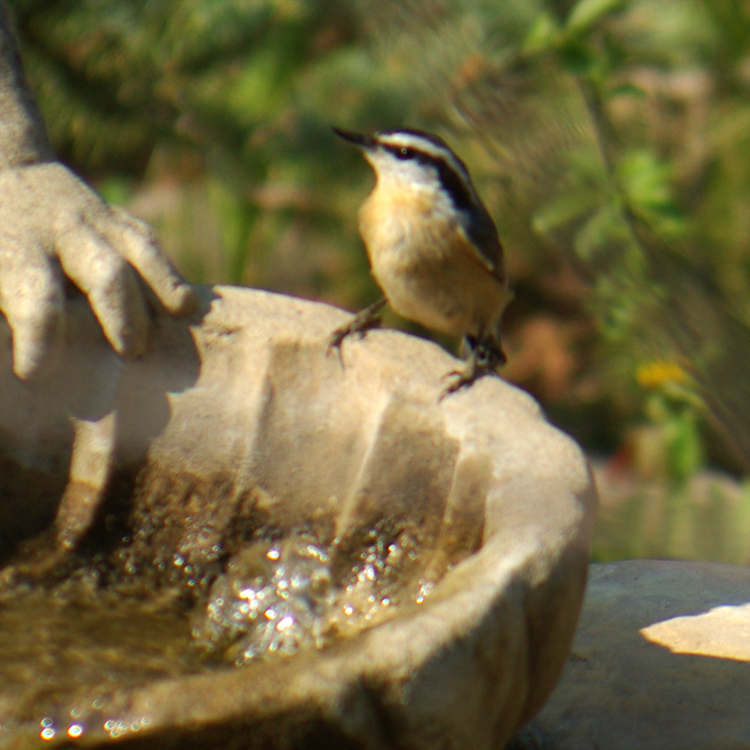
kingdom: Animalia
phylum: Chordata
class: Aves
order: Passeriformes
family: Sittidae
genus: Sitta
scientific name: Sitta canadensis
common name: Red-breasted nuthatch
